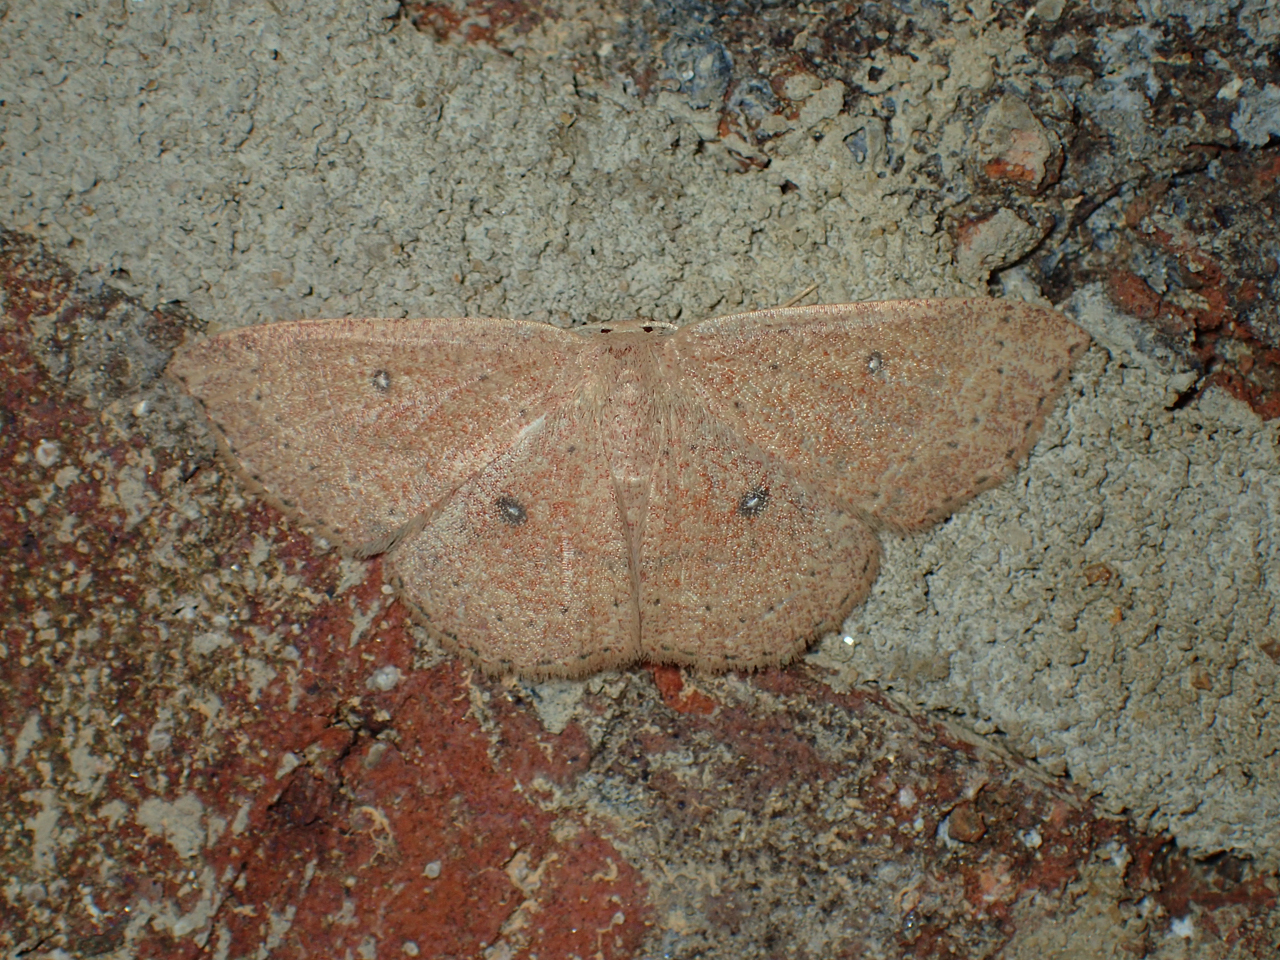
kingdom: Animalia
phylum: Arthropoda
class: Insecta
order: Lepidoptera
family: Geometridae
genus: Cyclophora
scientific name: Cyclophora packardi
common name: Packard's wave
